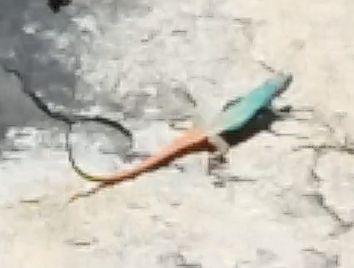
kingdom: Animalia
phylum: Chordata
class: Squamata
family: Cordylidae
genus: Platysaurus
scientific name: Platysaurus intermedius
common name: Common flat lizard
